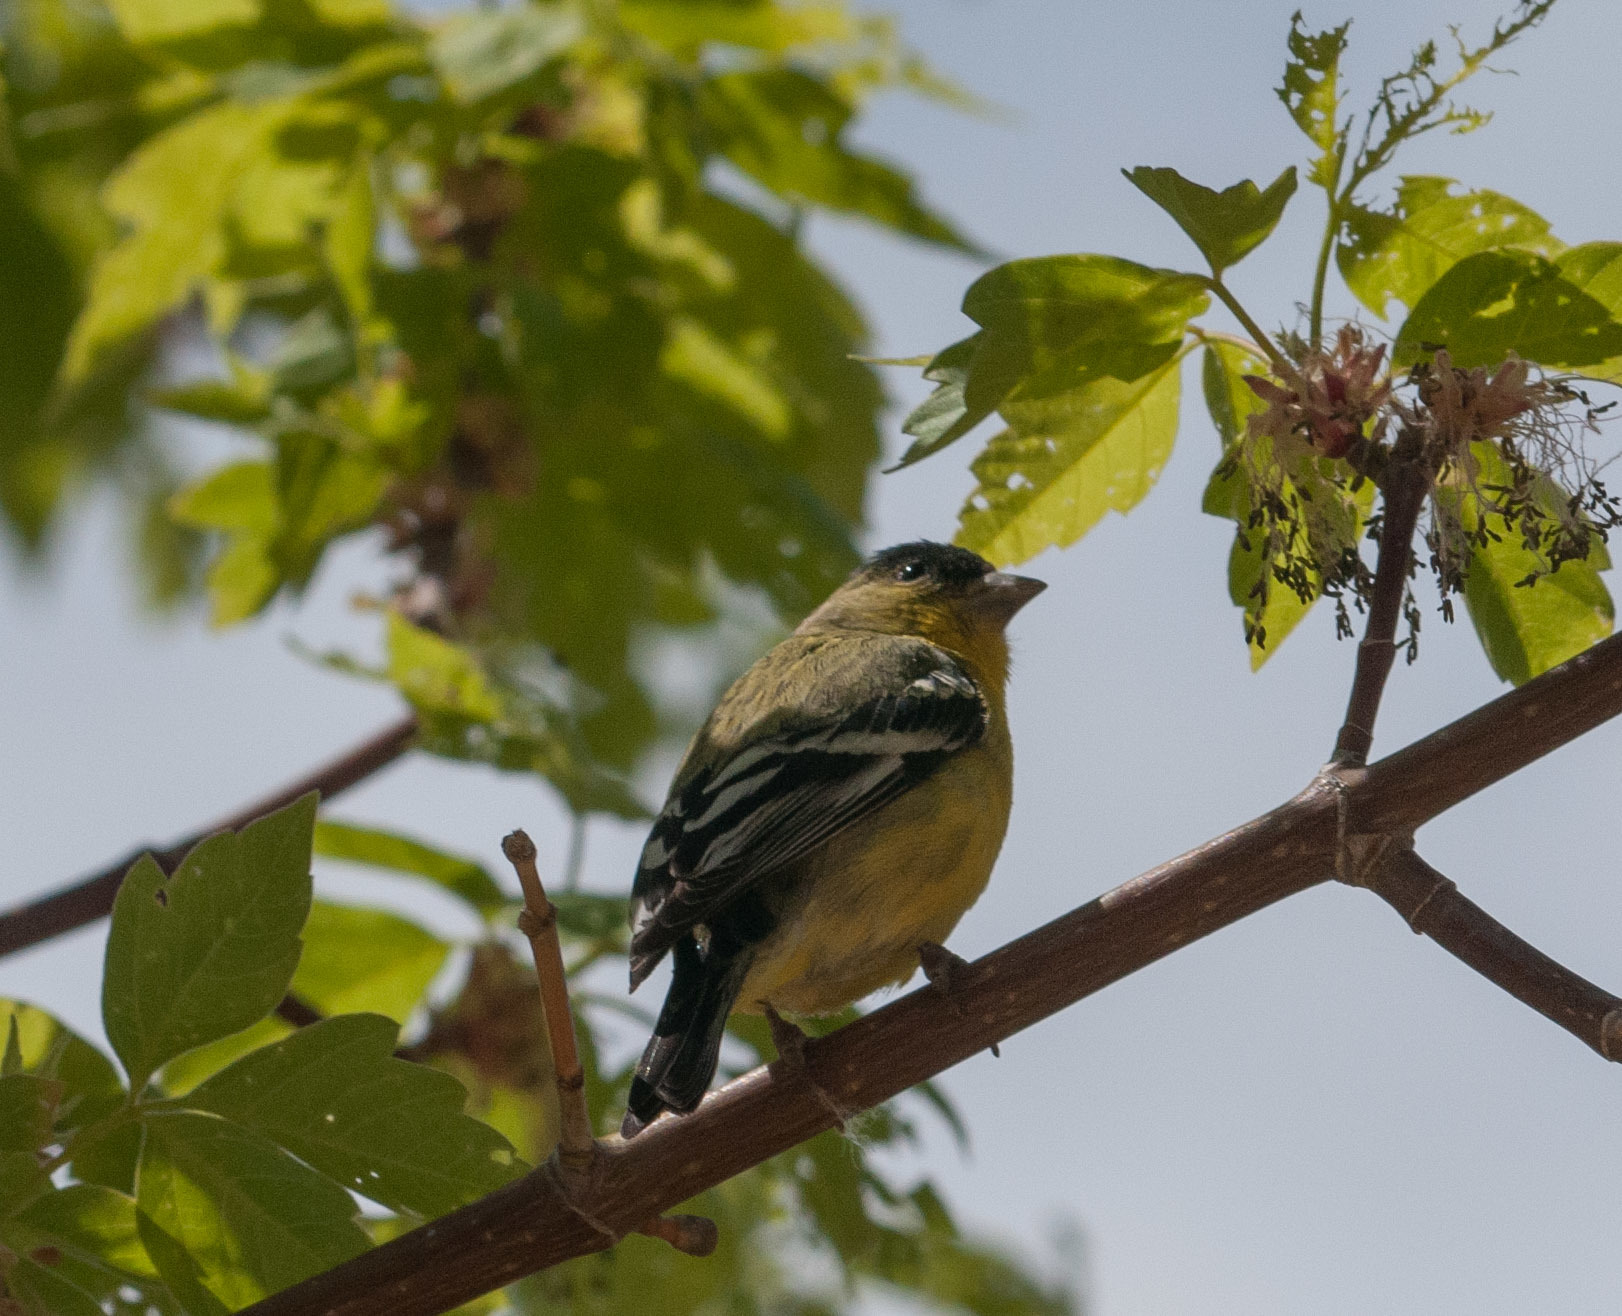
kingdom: Animalia
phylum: Chordata
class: Aves
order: Passeriformes
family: Fringillidae
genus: Spinus
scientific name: Spinus psaltria
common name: Lesser goldfinch
